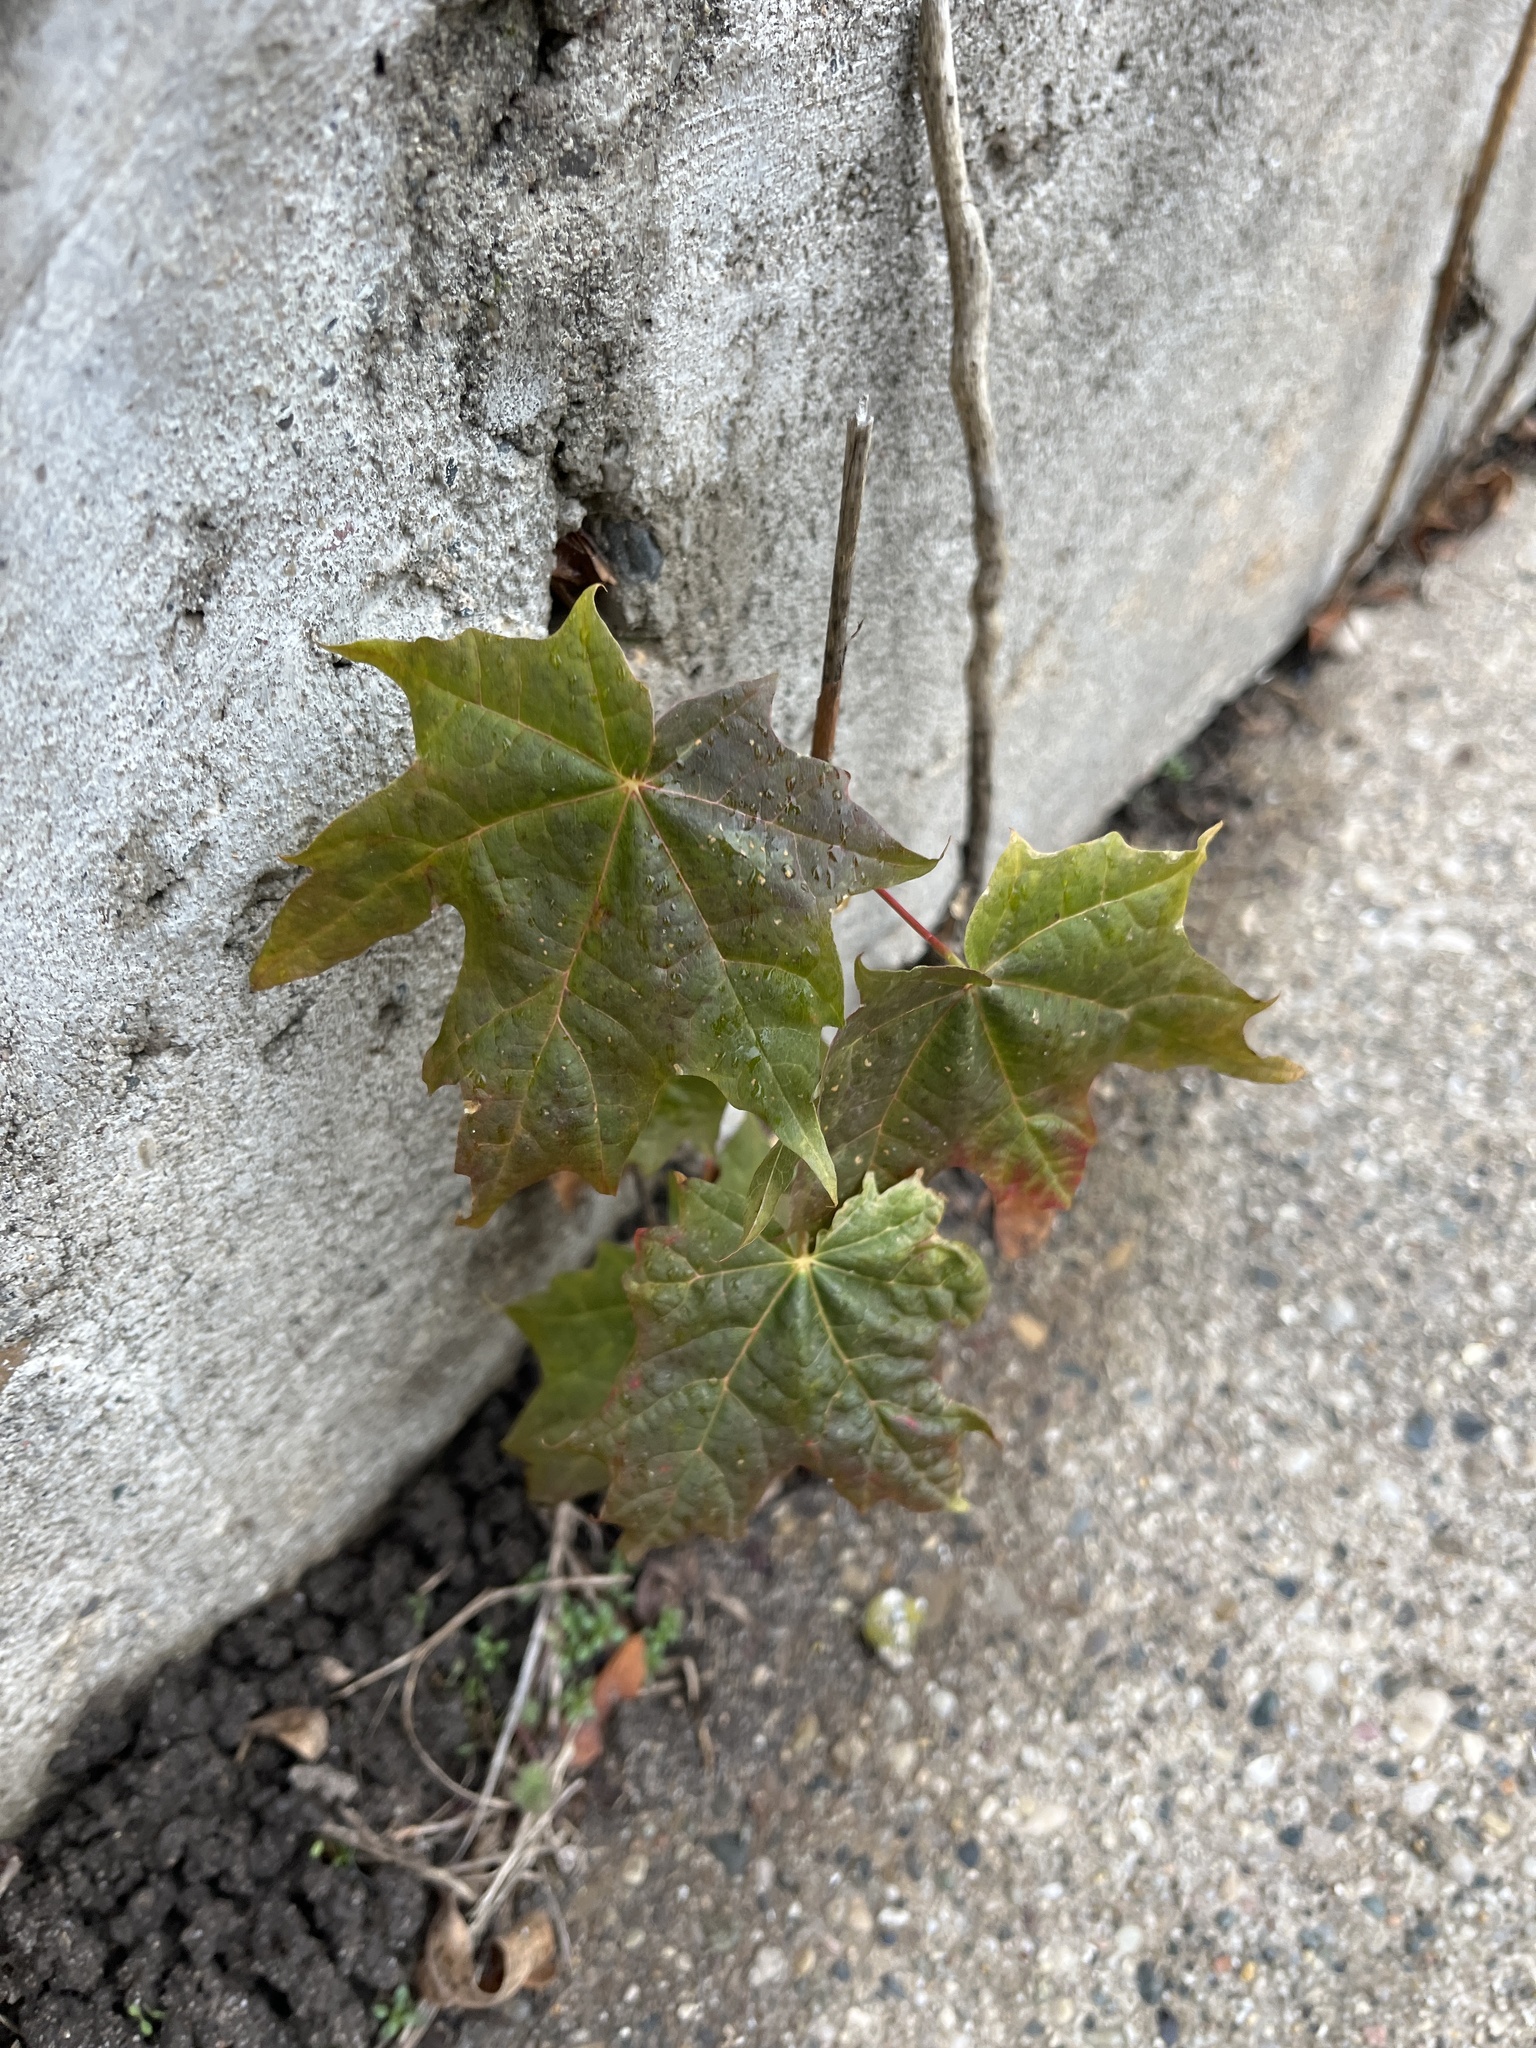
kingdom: Plantae
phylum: Tracheophyta
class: Magnoliopsida
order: Sapindales
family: Sapindaceae
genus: Acer
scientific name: Acer platanoides
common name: Norway maple
